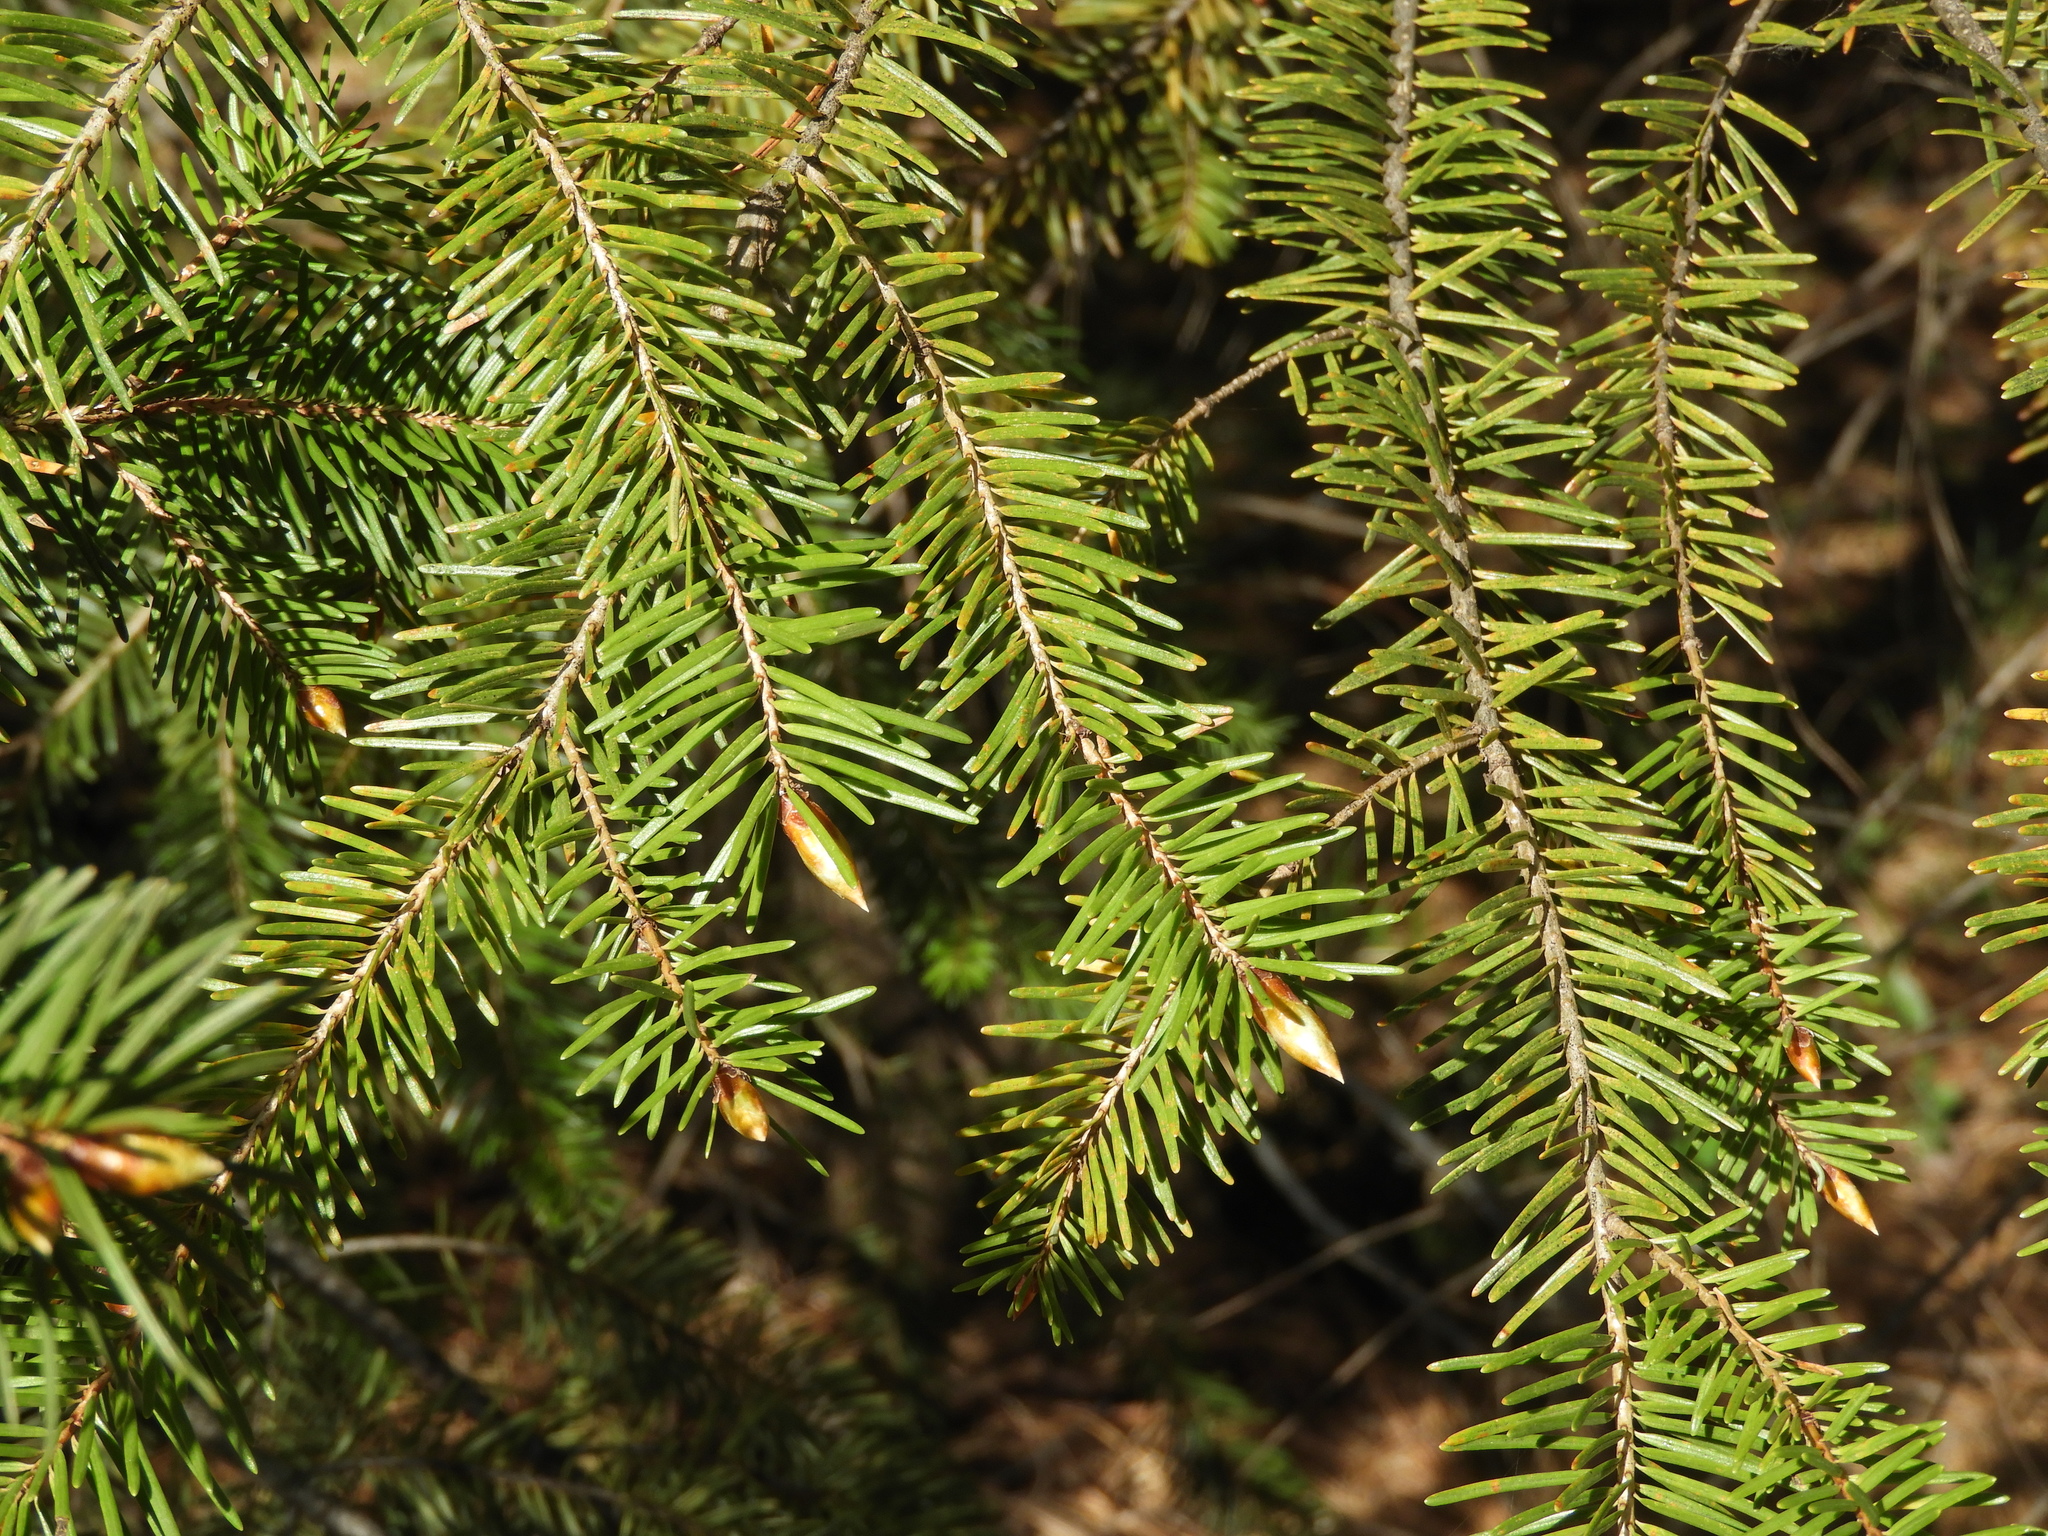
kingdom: Plantae
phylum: Tracheophyta
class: Pinopsida
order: Pinales
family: Pinaceae
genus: Pseudotsuga
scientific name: Pseudotsuga menziesii
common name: Douglas fir
